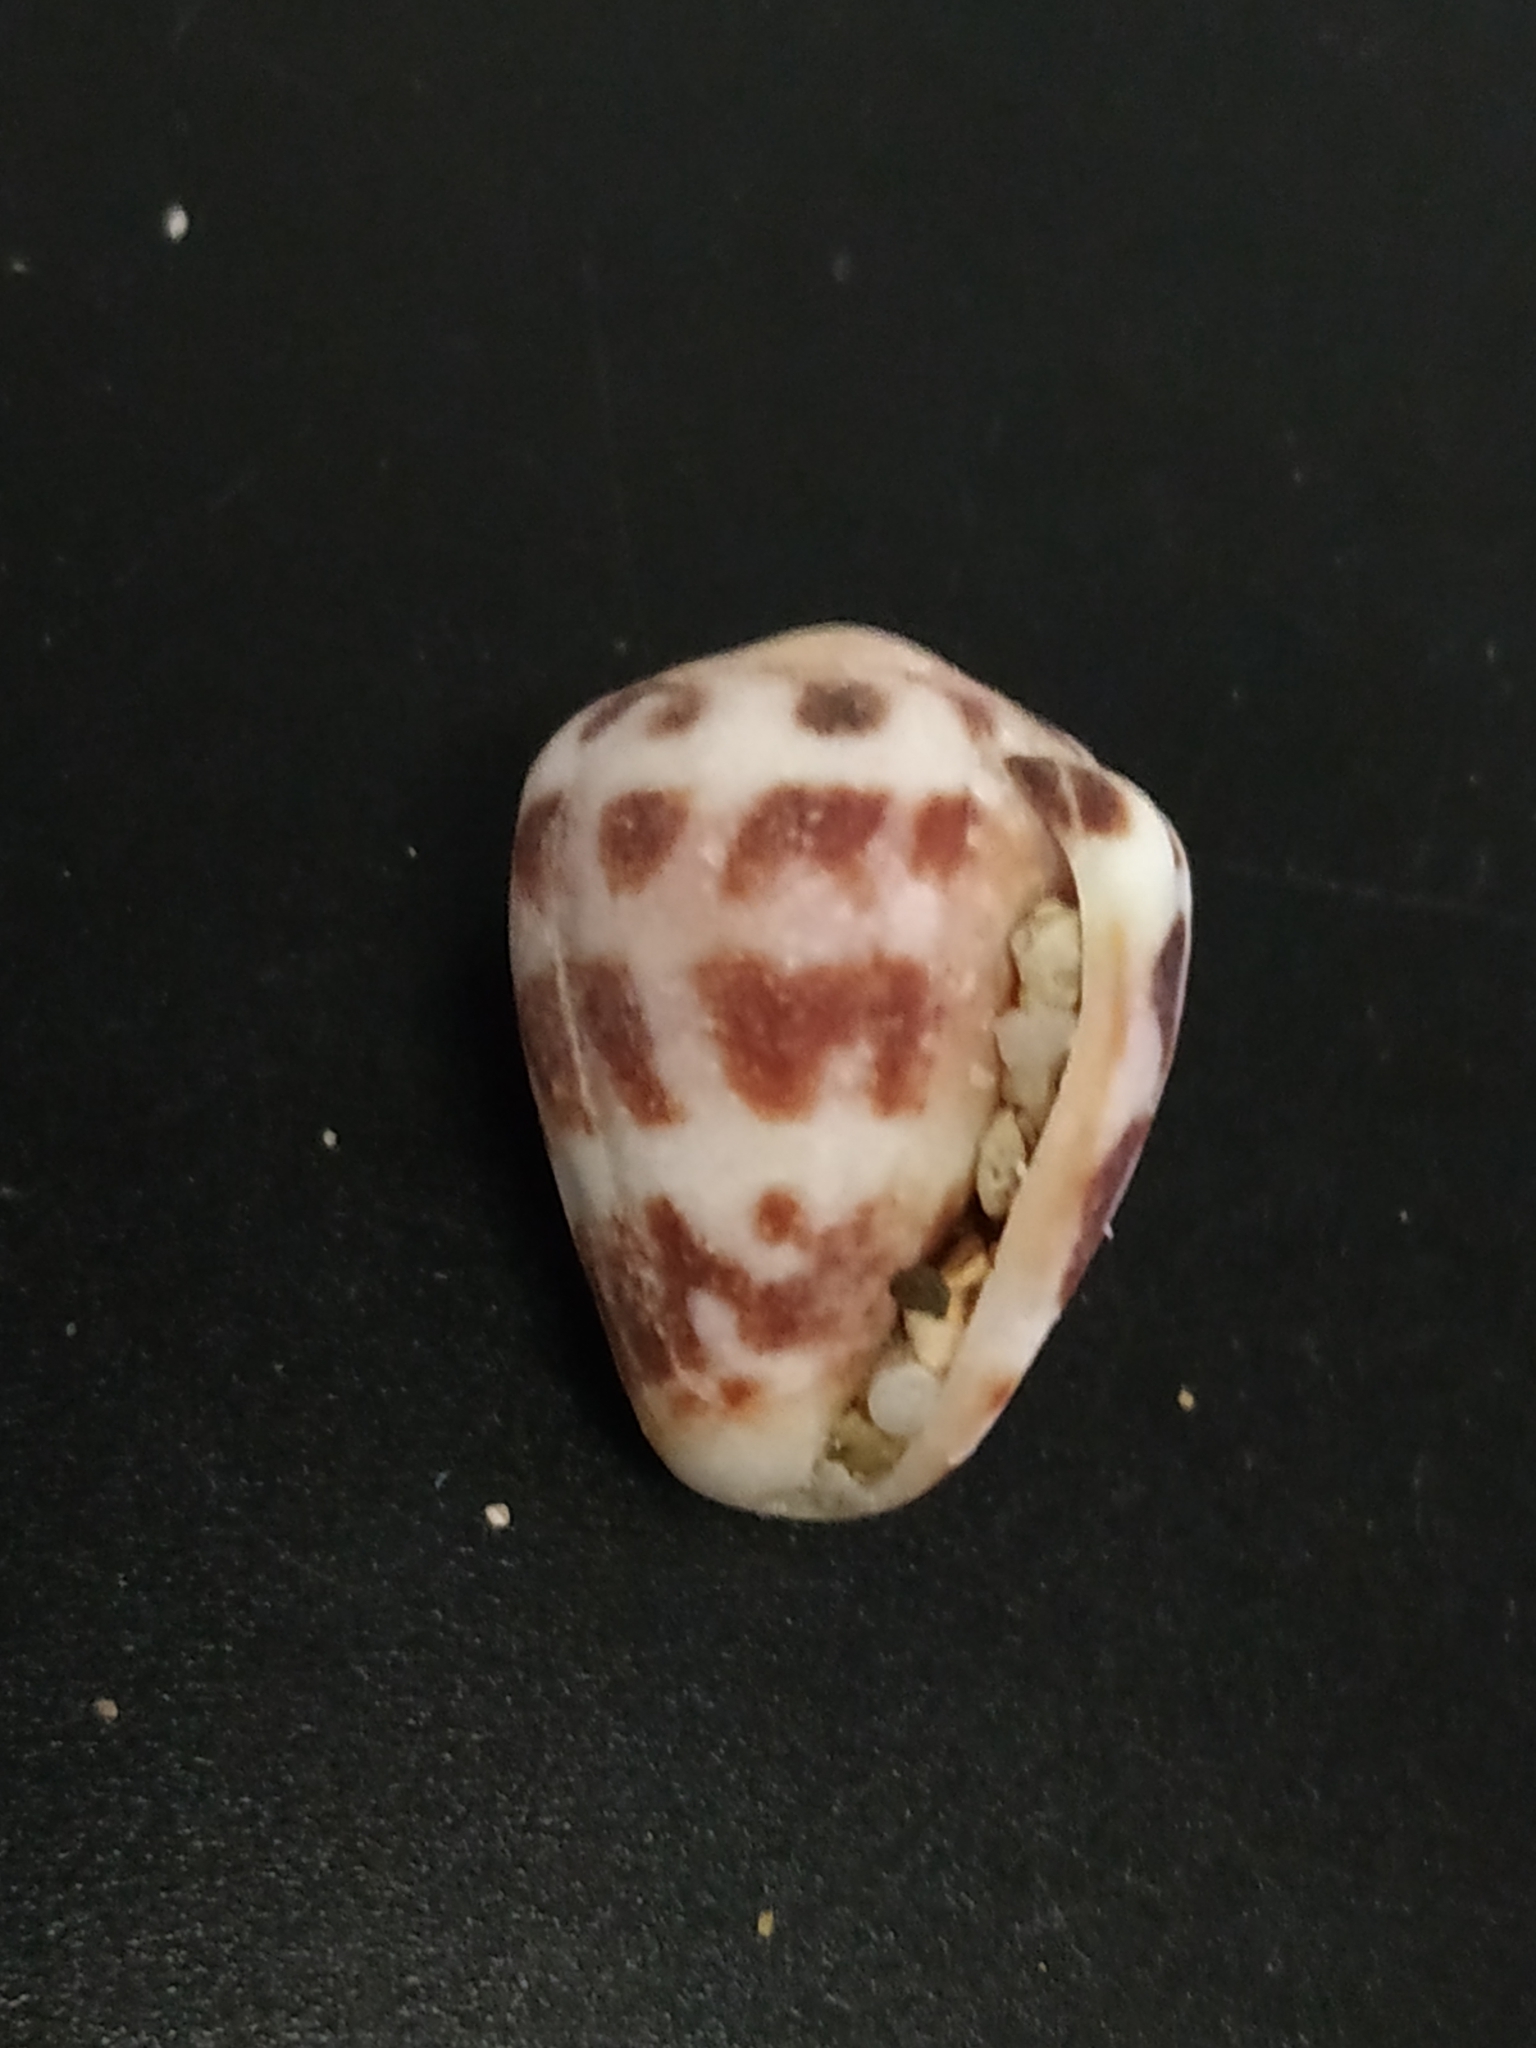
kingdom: Animalia
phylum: Mollusca
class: Gastropoda
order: Neogastropoda
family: Conidae
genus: Conus
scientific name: Conus ebraeus
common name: Hebrew cone
